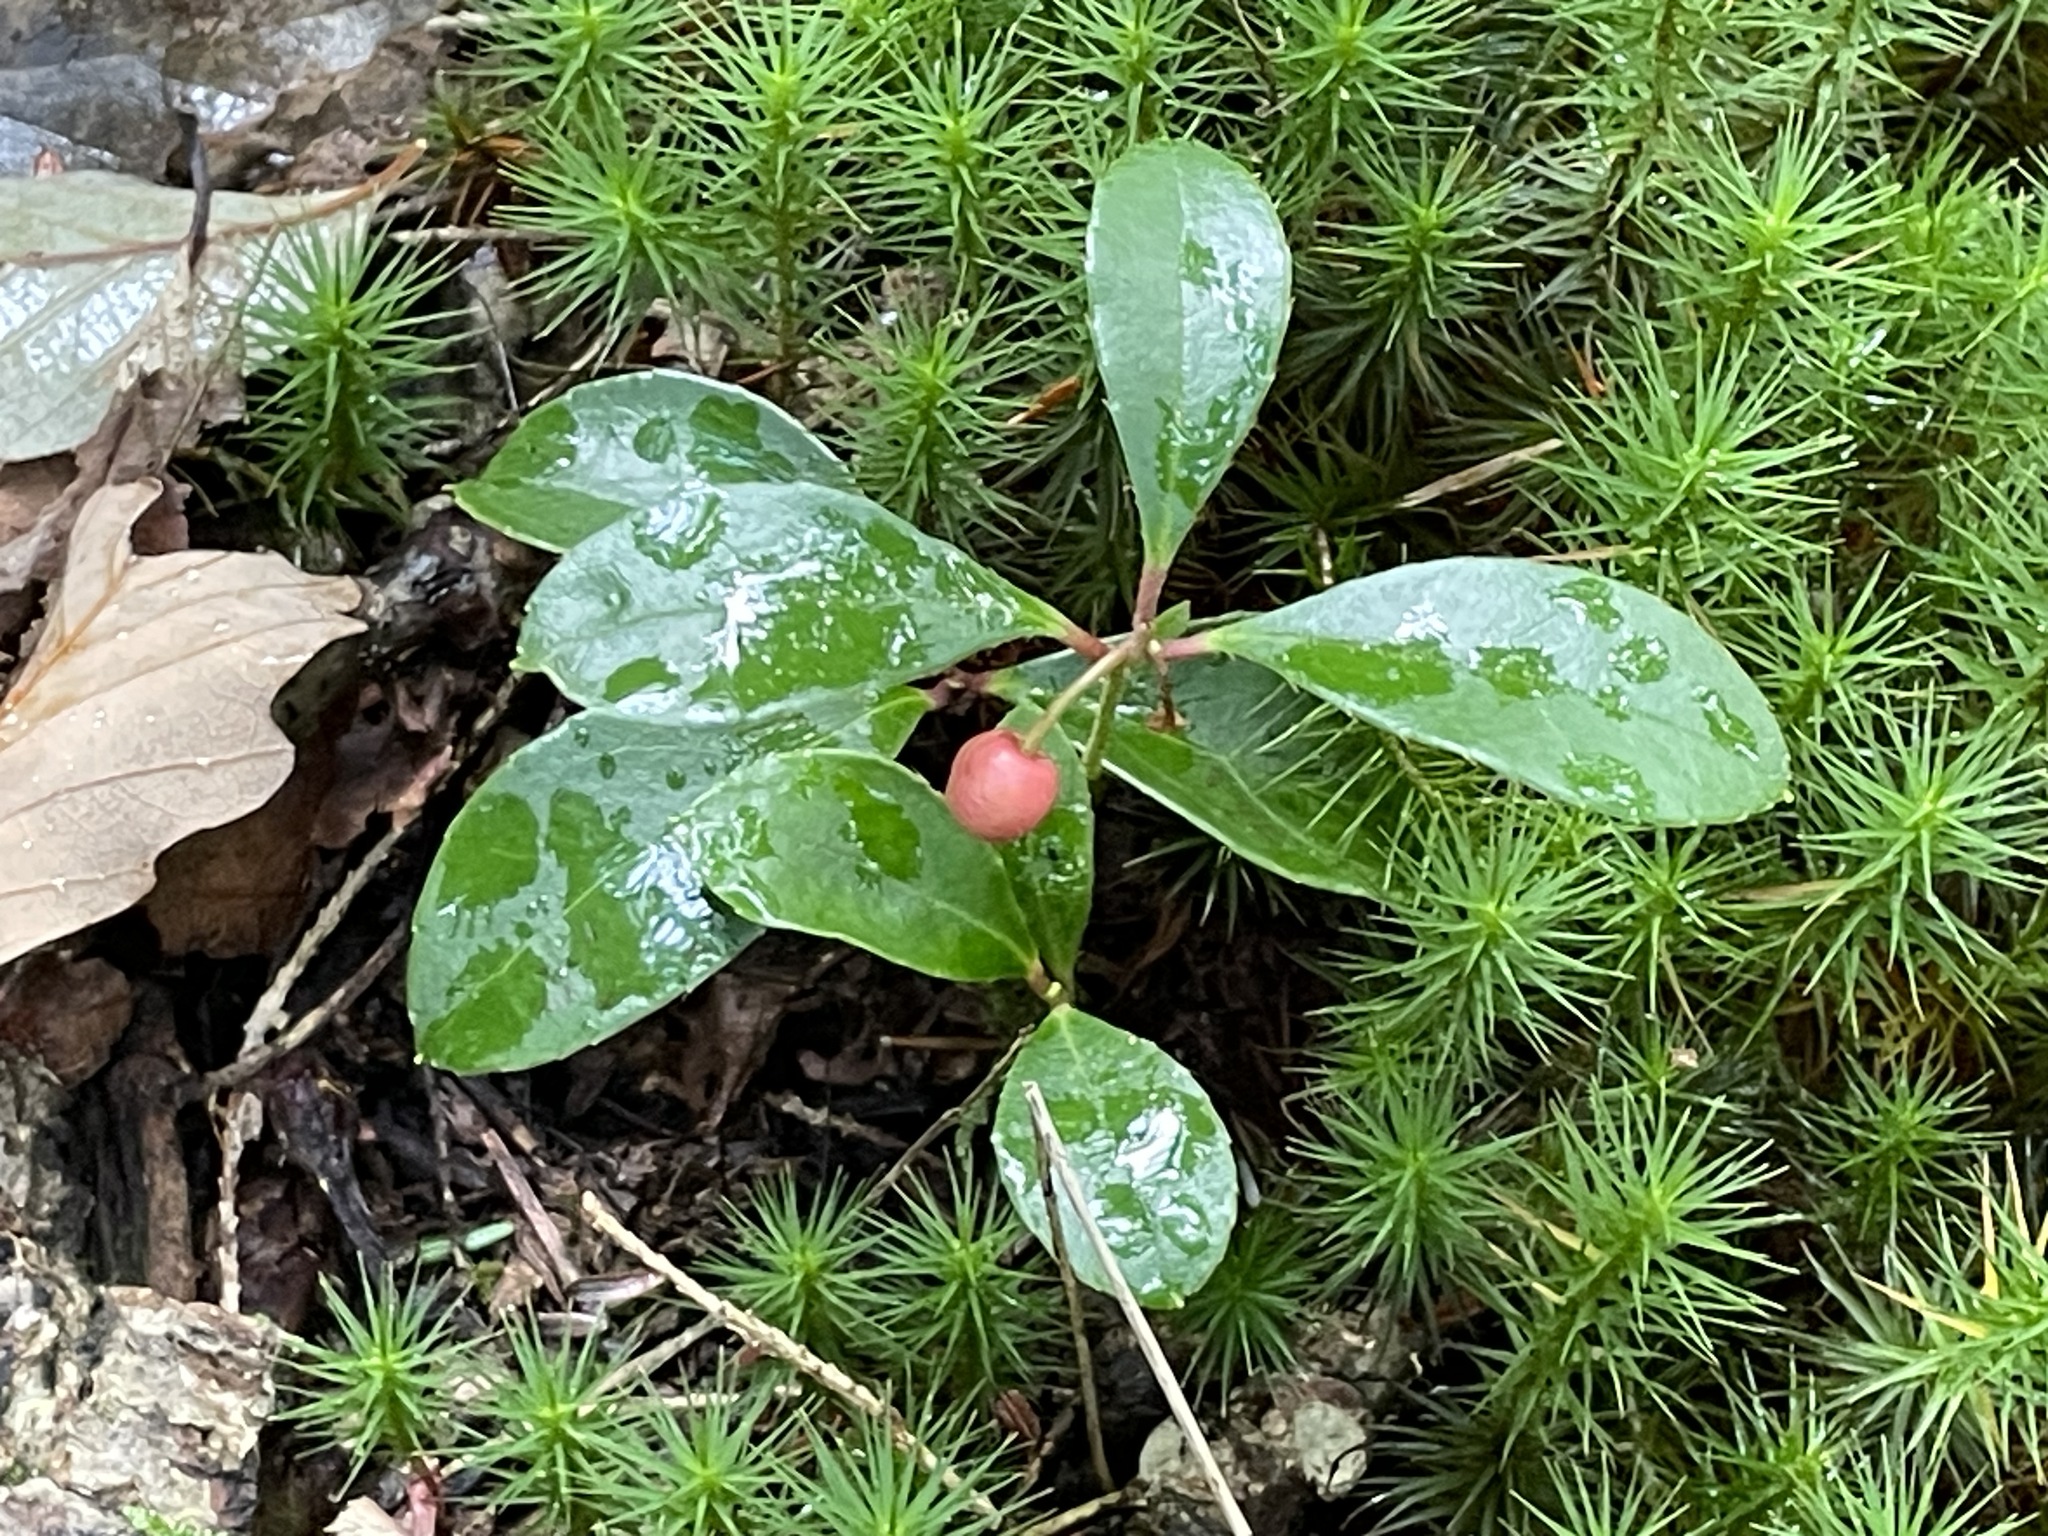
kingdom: Plantae
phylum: Tracheophyta
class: Magnoliopsida
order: Ericales
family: Ericaceae
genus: Gaultheria
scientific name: Gaultheria procumbens
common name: Checkerberry
